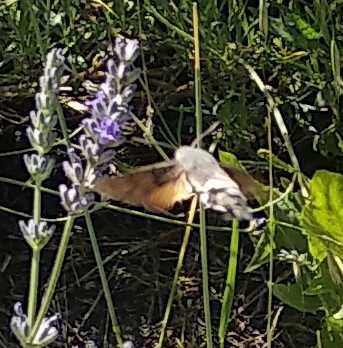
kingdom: Animalia
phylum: Arthropoda
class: Insecta
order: Lepidoptera
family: Sphingidae
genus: Macroglossum
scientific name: Macroglossum stellatarum
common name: Humming-bird hawk-moth
